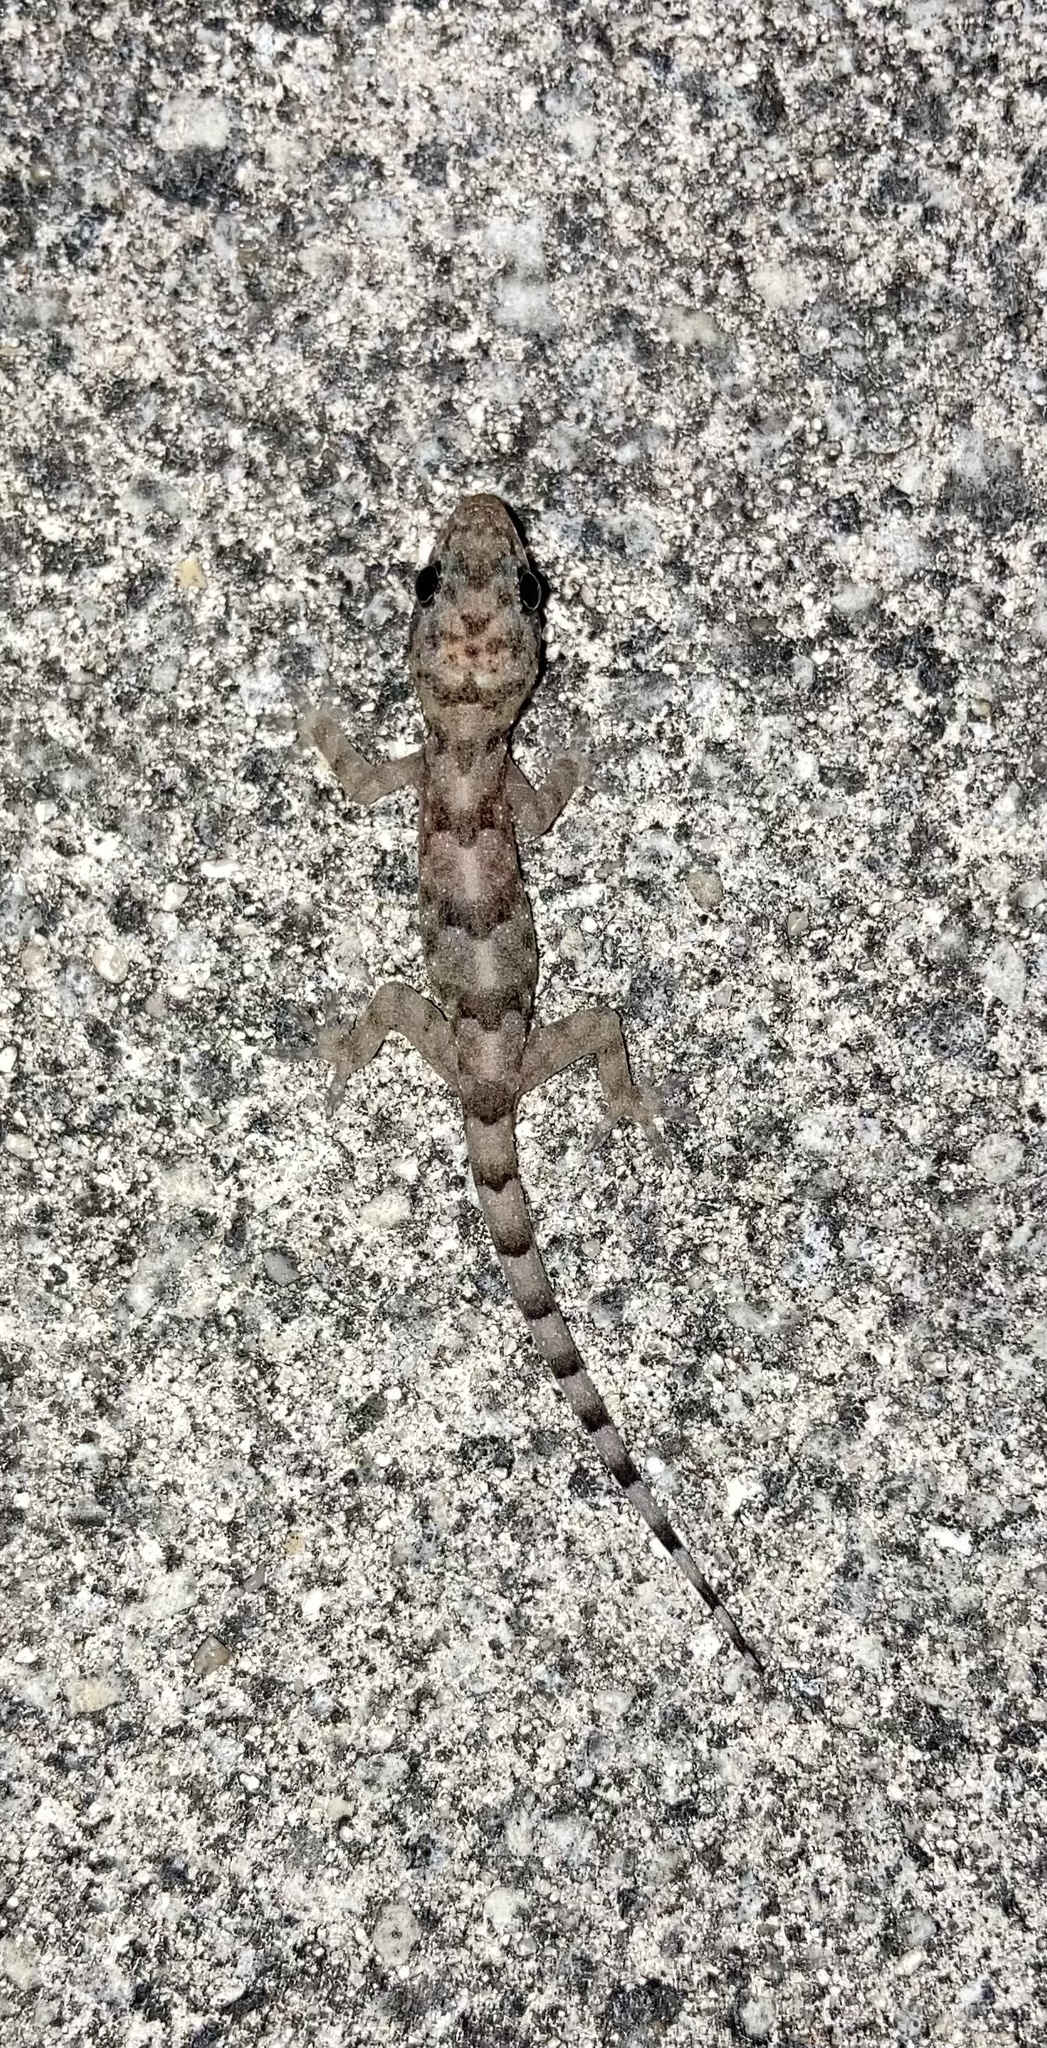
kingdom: Animalia
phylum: Chordata
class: Squamata
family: Gekkonidae
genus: Hemidactylus
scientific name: Hemidactylus mabouia
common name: House gecko
